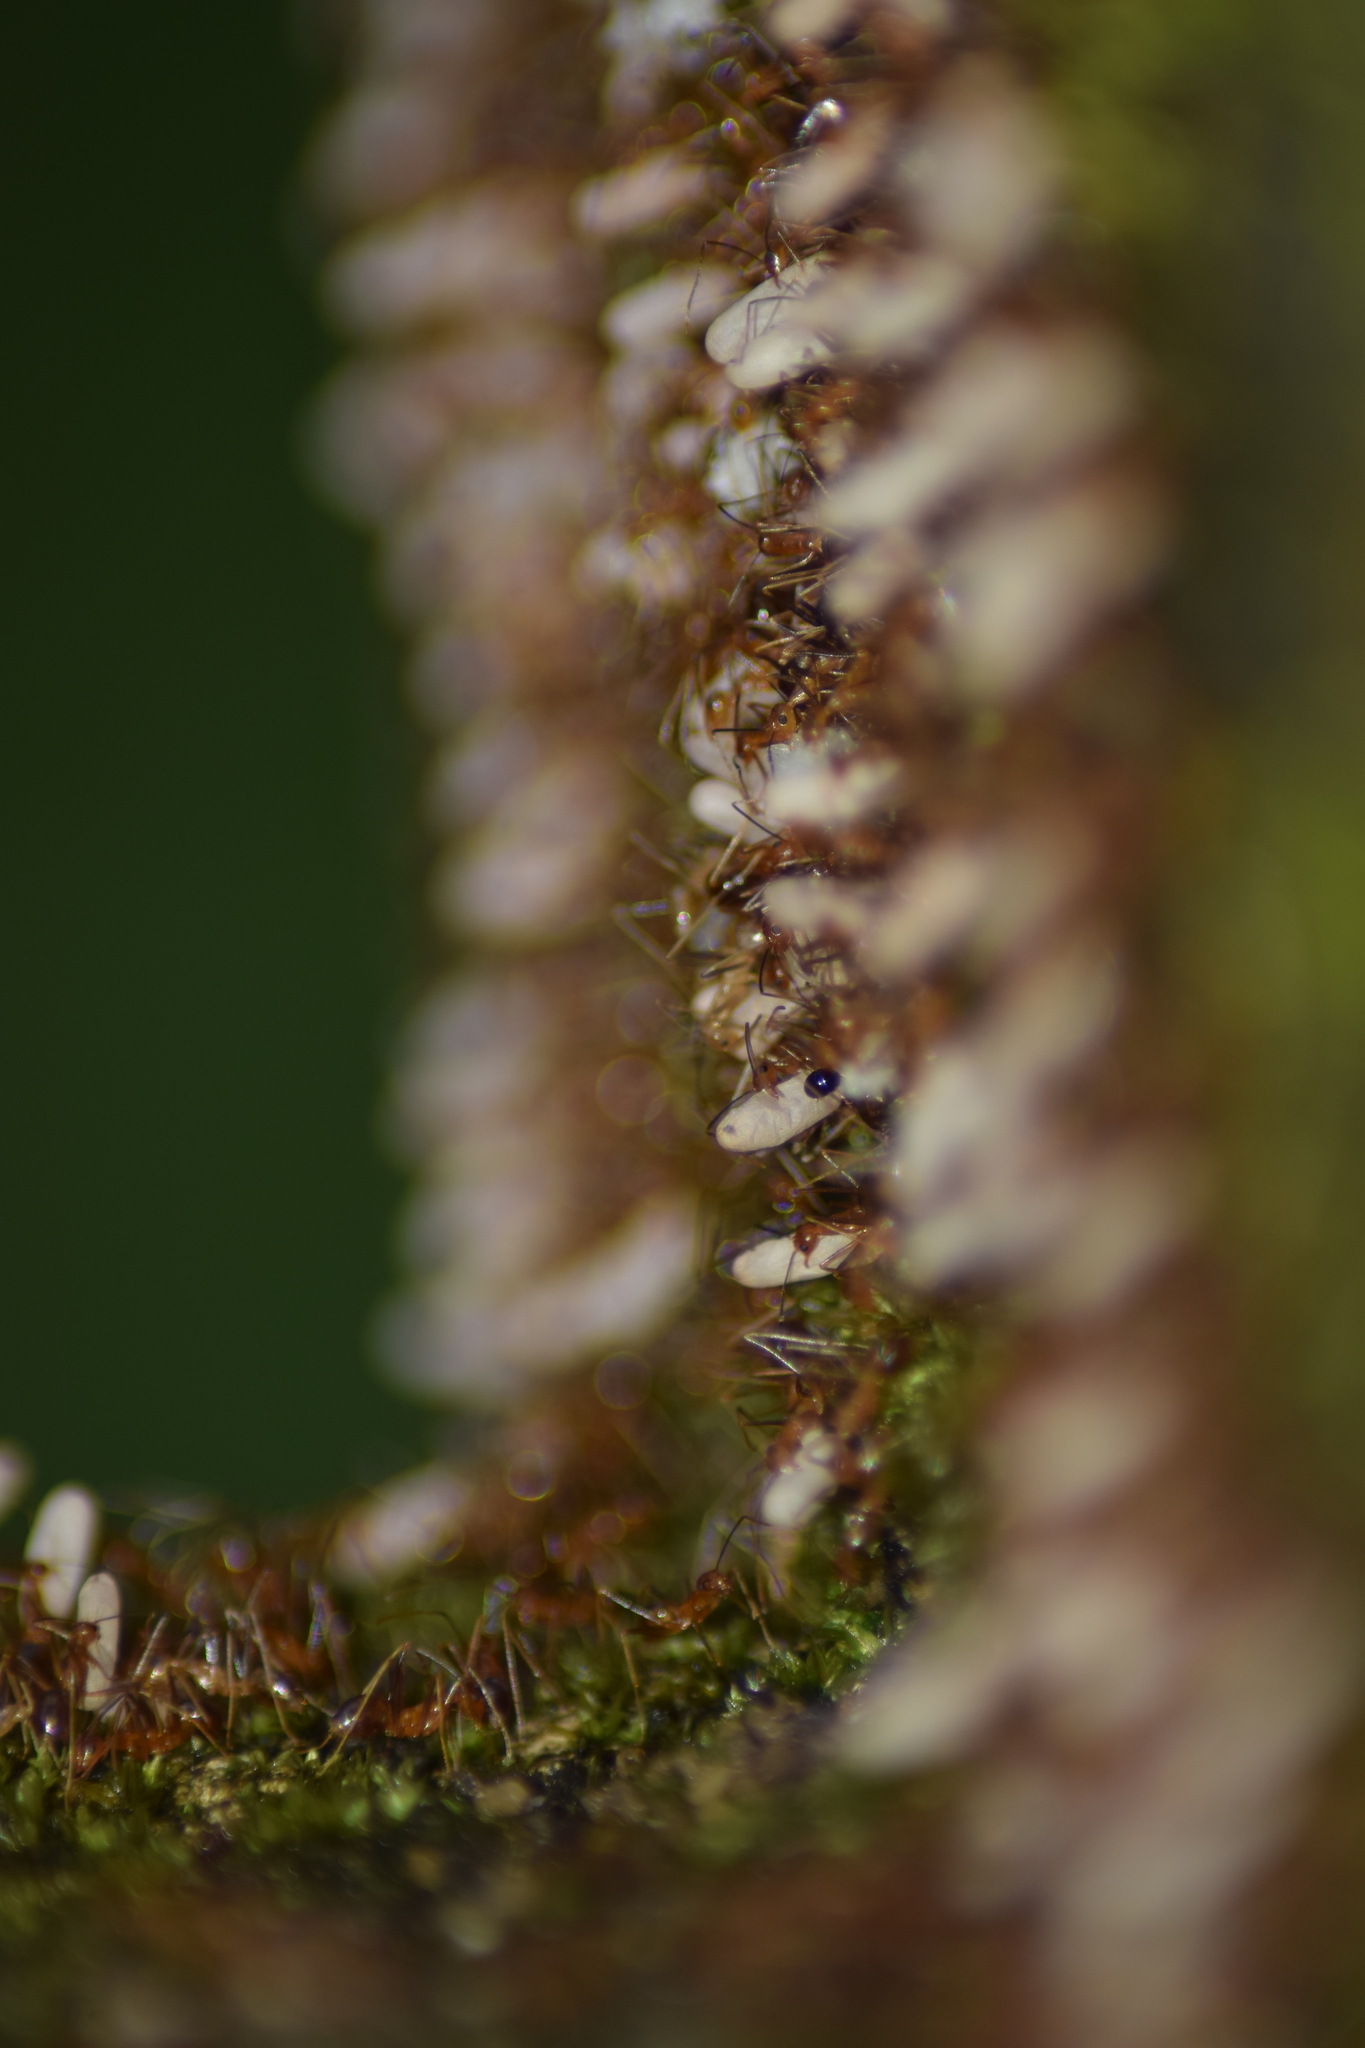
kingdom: Animalia
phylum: Arthropoda
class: Insecta
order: Hymenoptera
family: Formicidae
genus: Anoplolepis
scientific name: Anoplolepis gracilipes
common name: Ant
